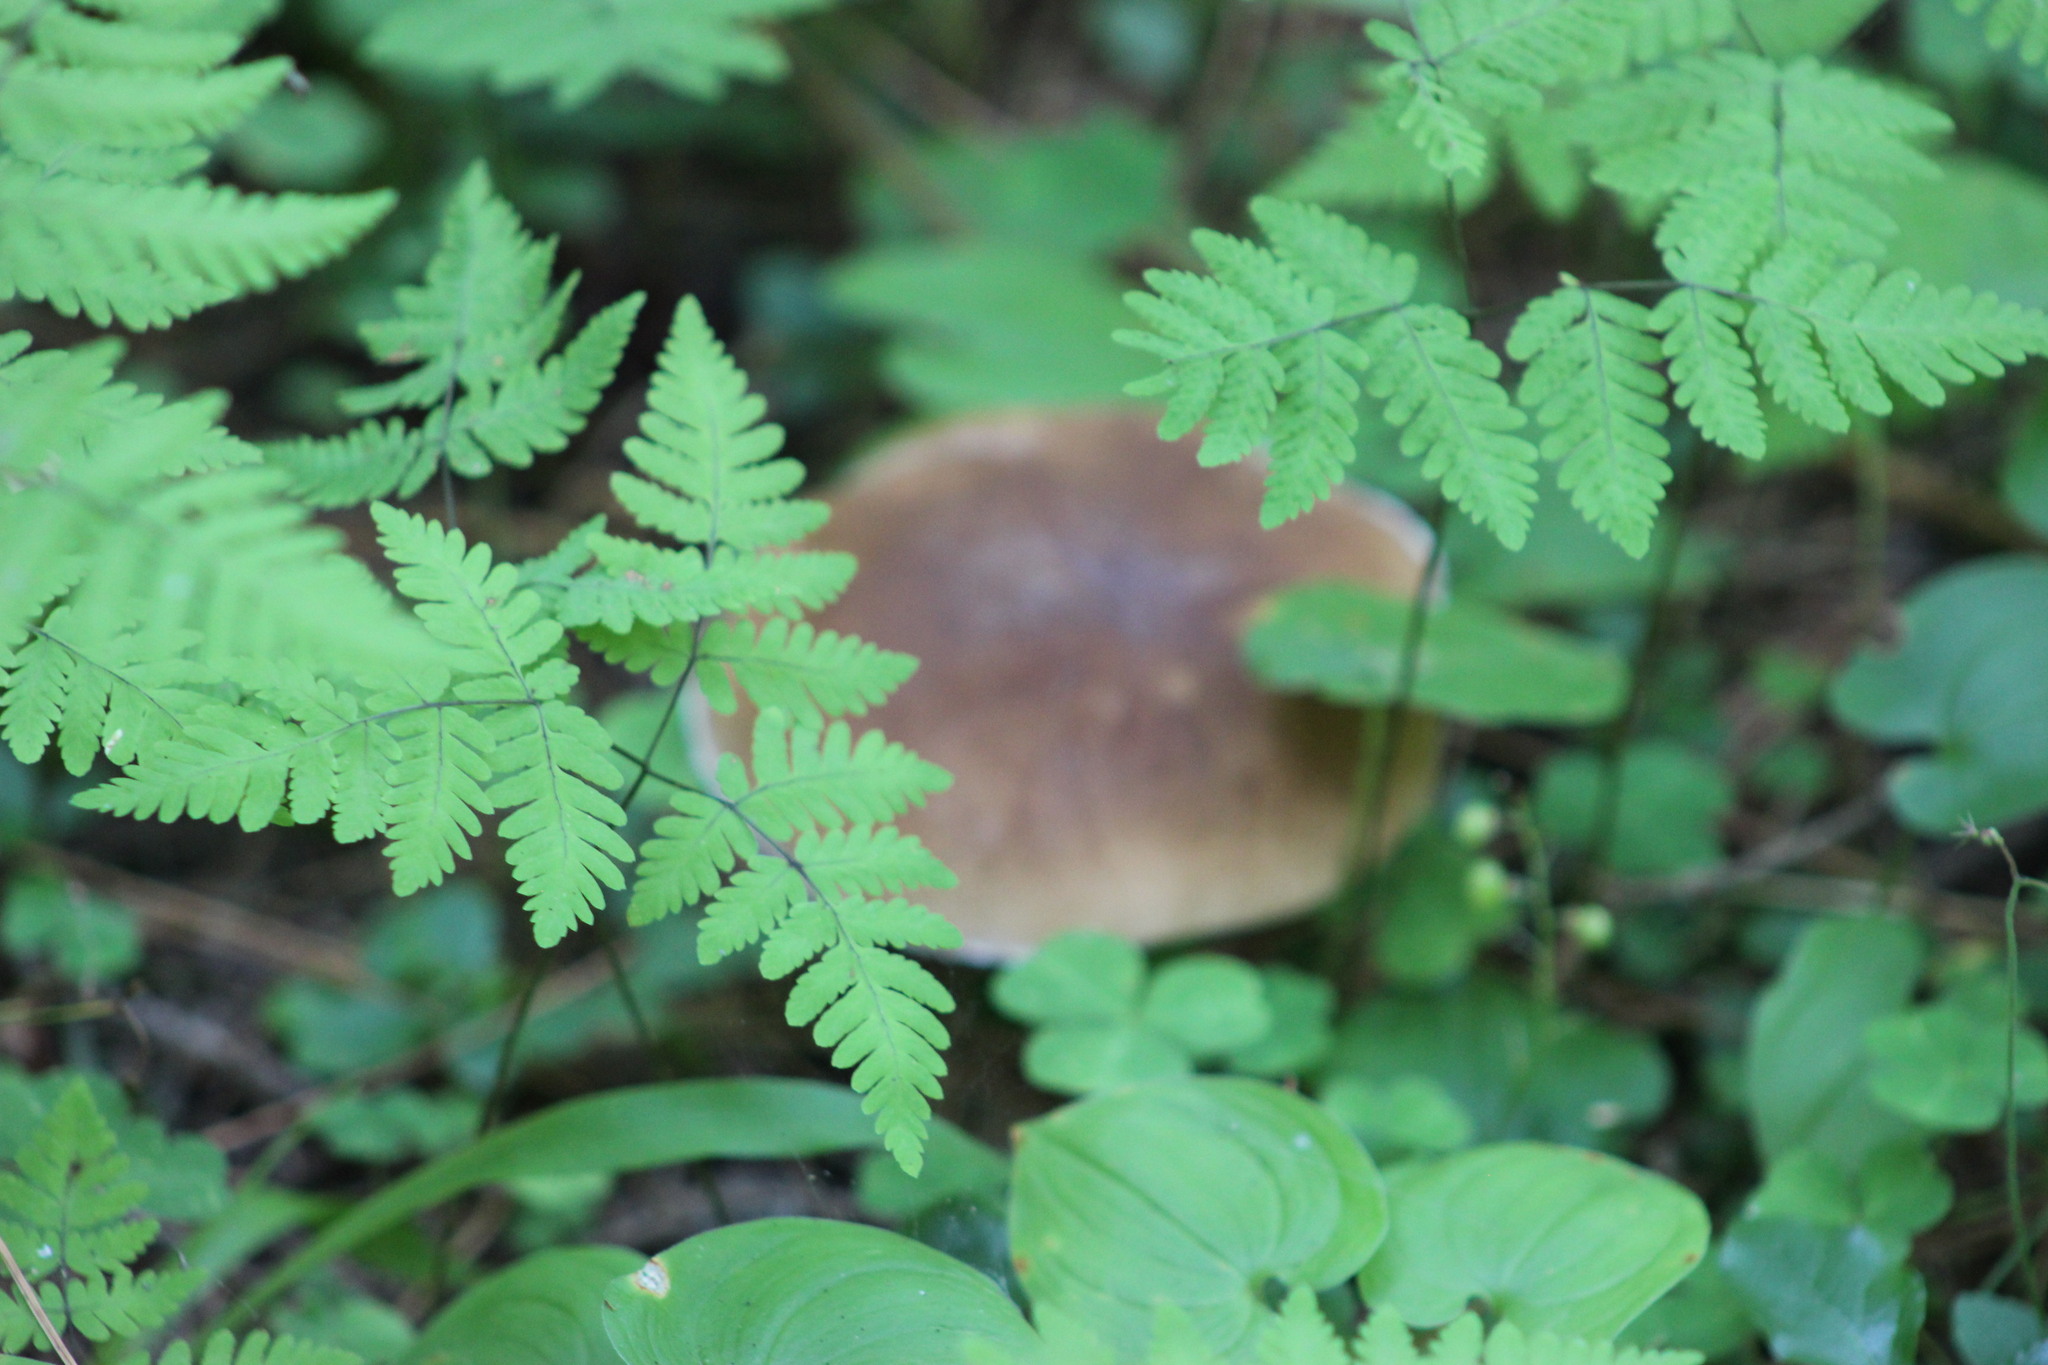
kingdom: Fungi
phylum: Basidiomycota
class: Agaricomycetes
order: Boletales
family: Boletaceae
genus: Boletus
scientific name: Boletus edulis
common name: Cep
